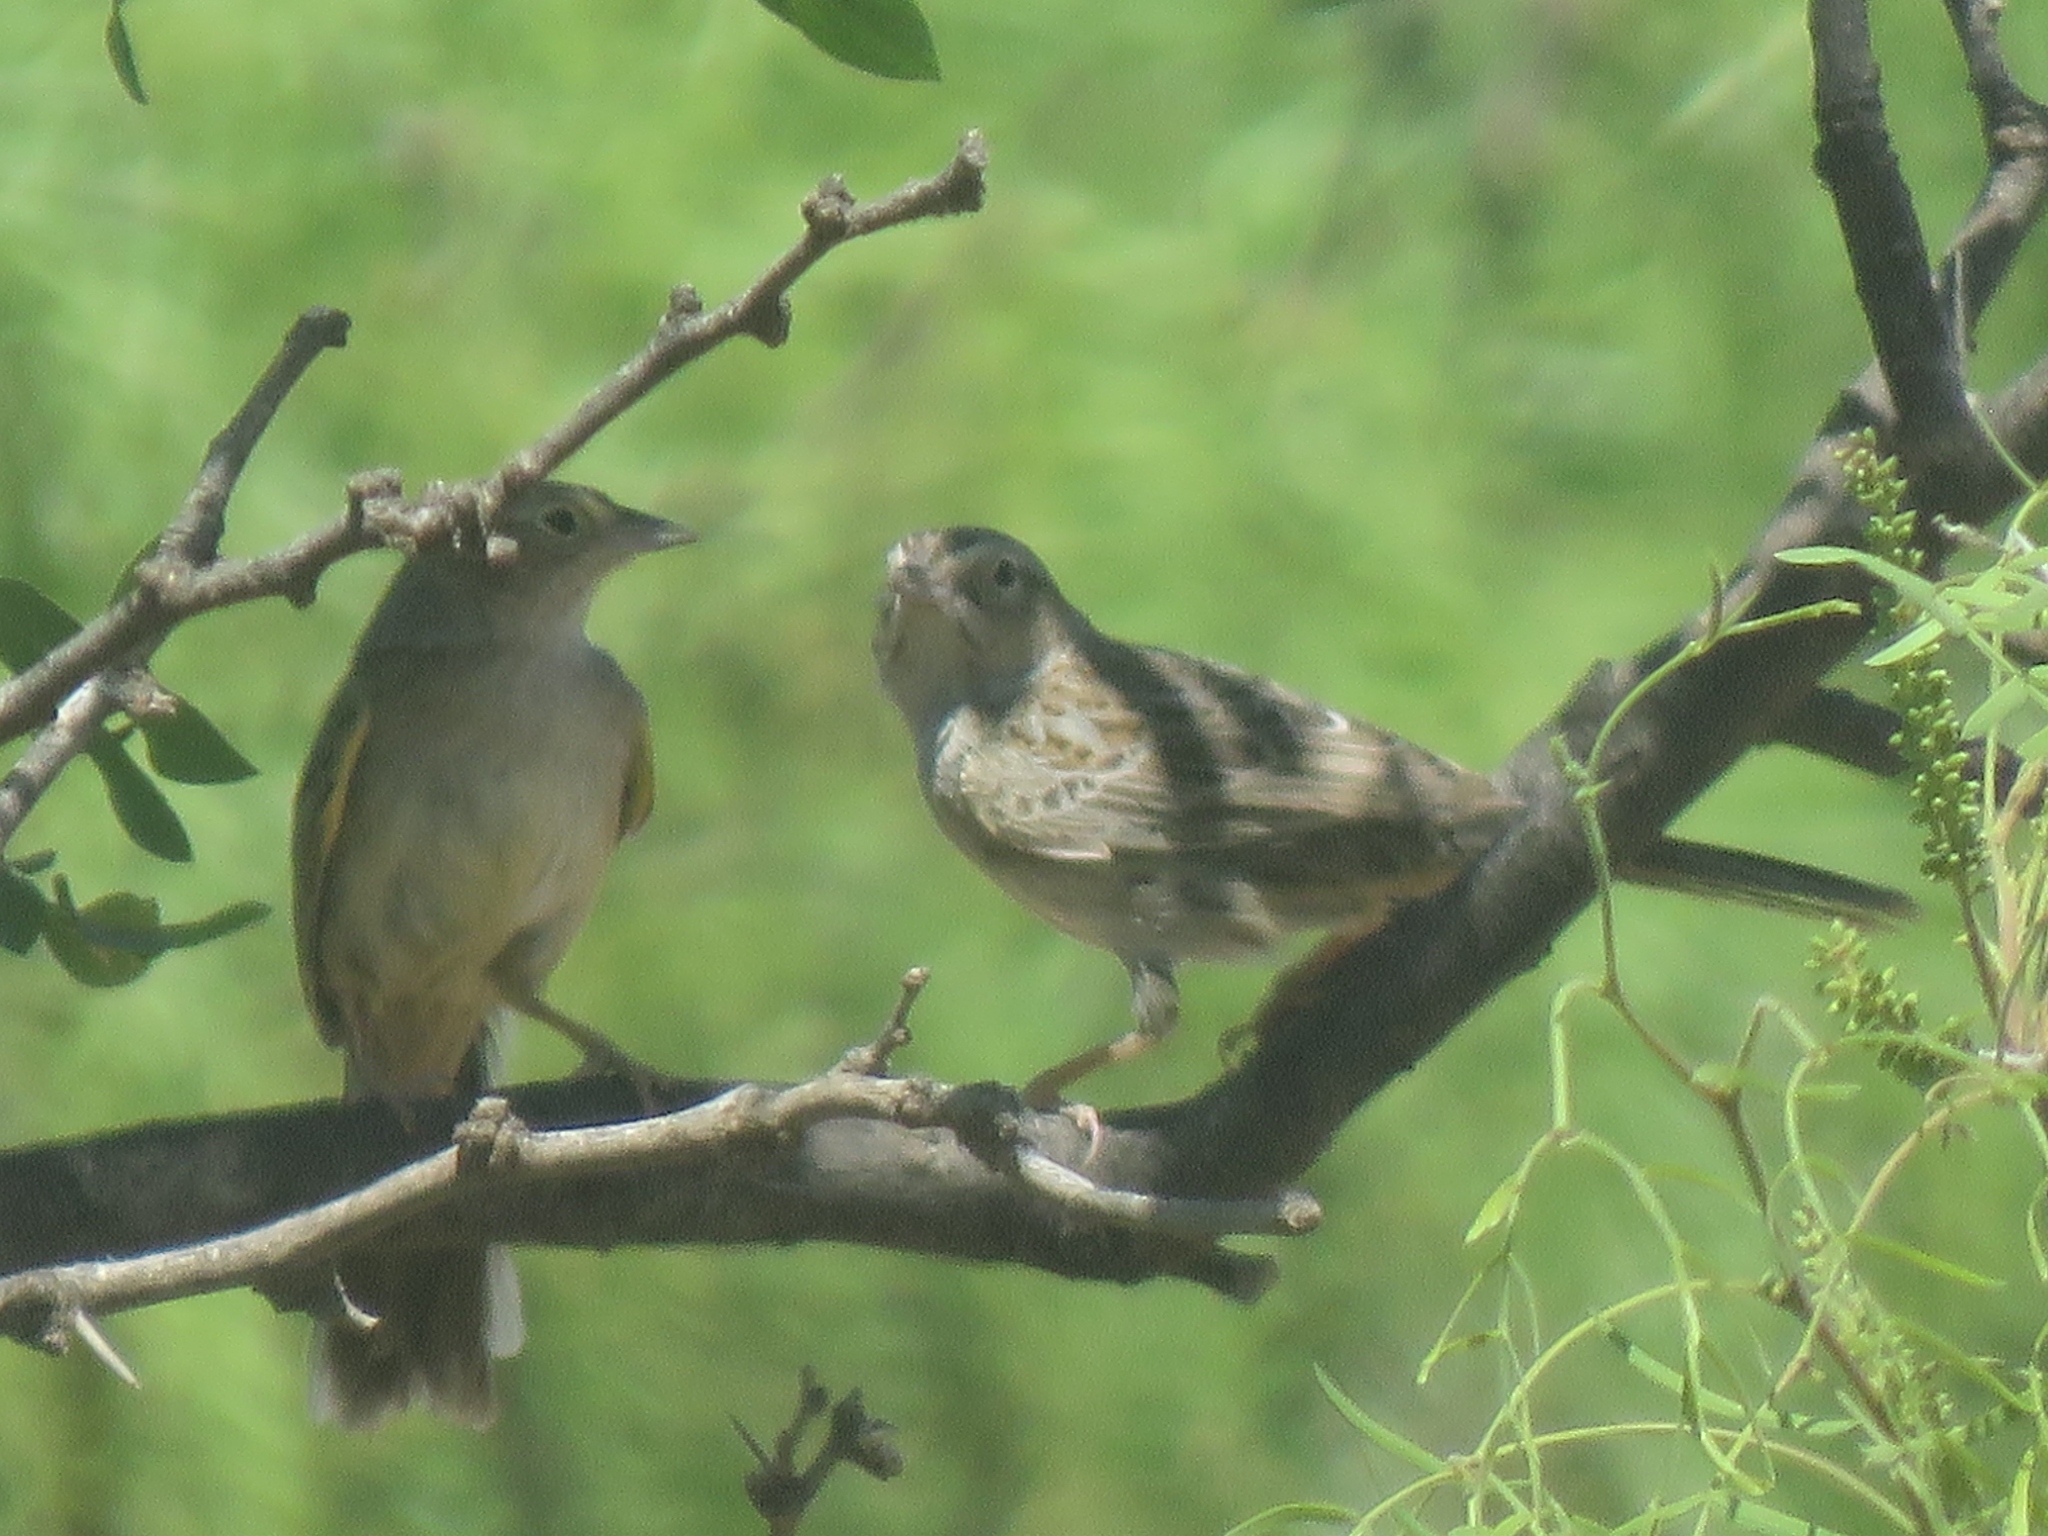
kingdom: Animalia
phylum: Chordata
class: Aves
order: Passeriformes
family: Passerellidae
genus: Peucaea
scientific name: Peucaea cassinii
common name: Cassin's sparrow
